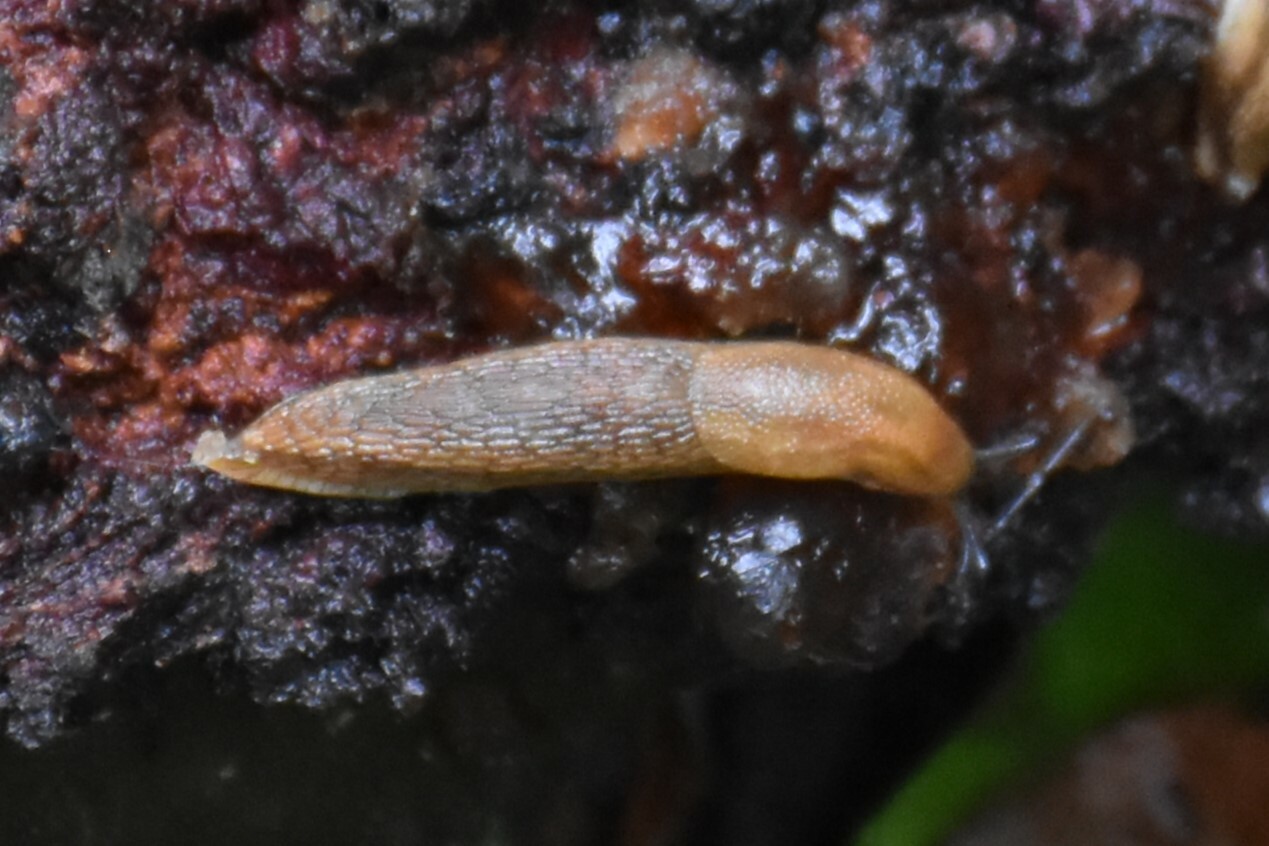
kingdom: Animalia
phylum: Mollusca
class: Gastropoda
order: Stylommatophora
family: Arionidae
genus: Arion
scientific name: Arion
